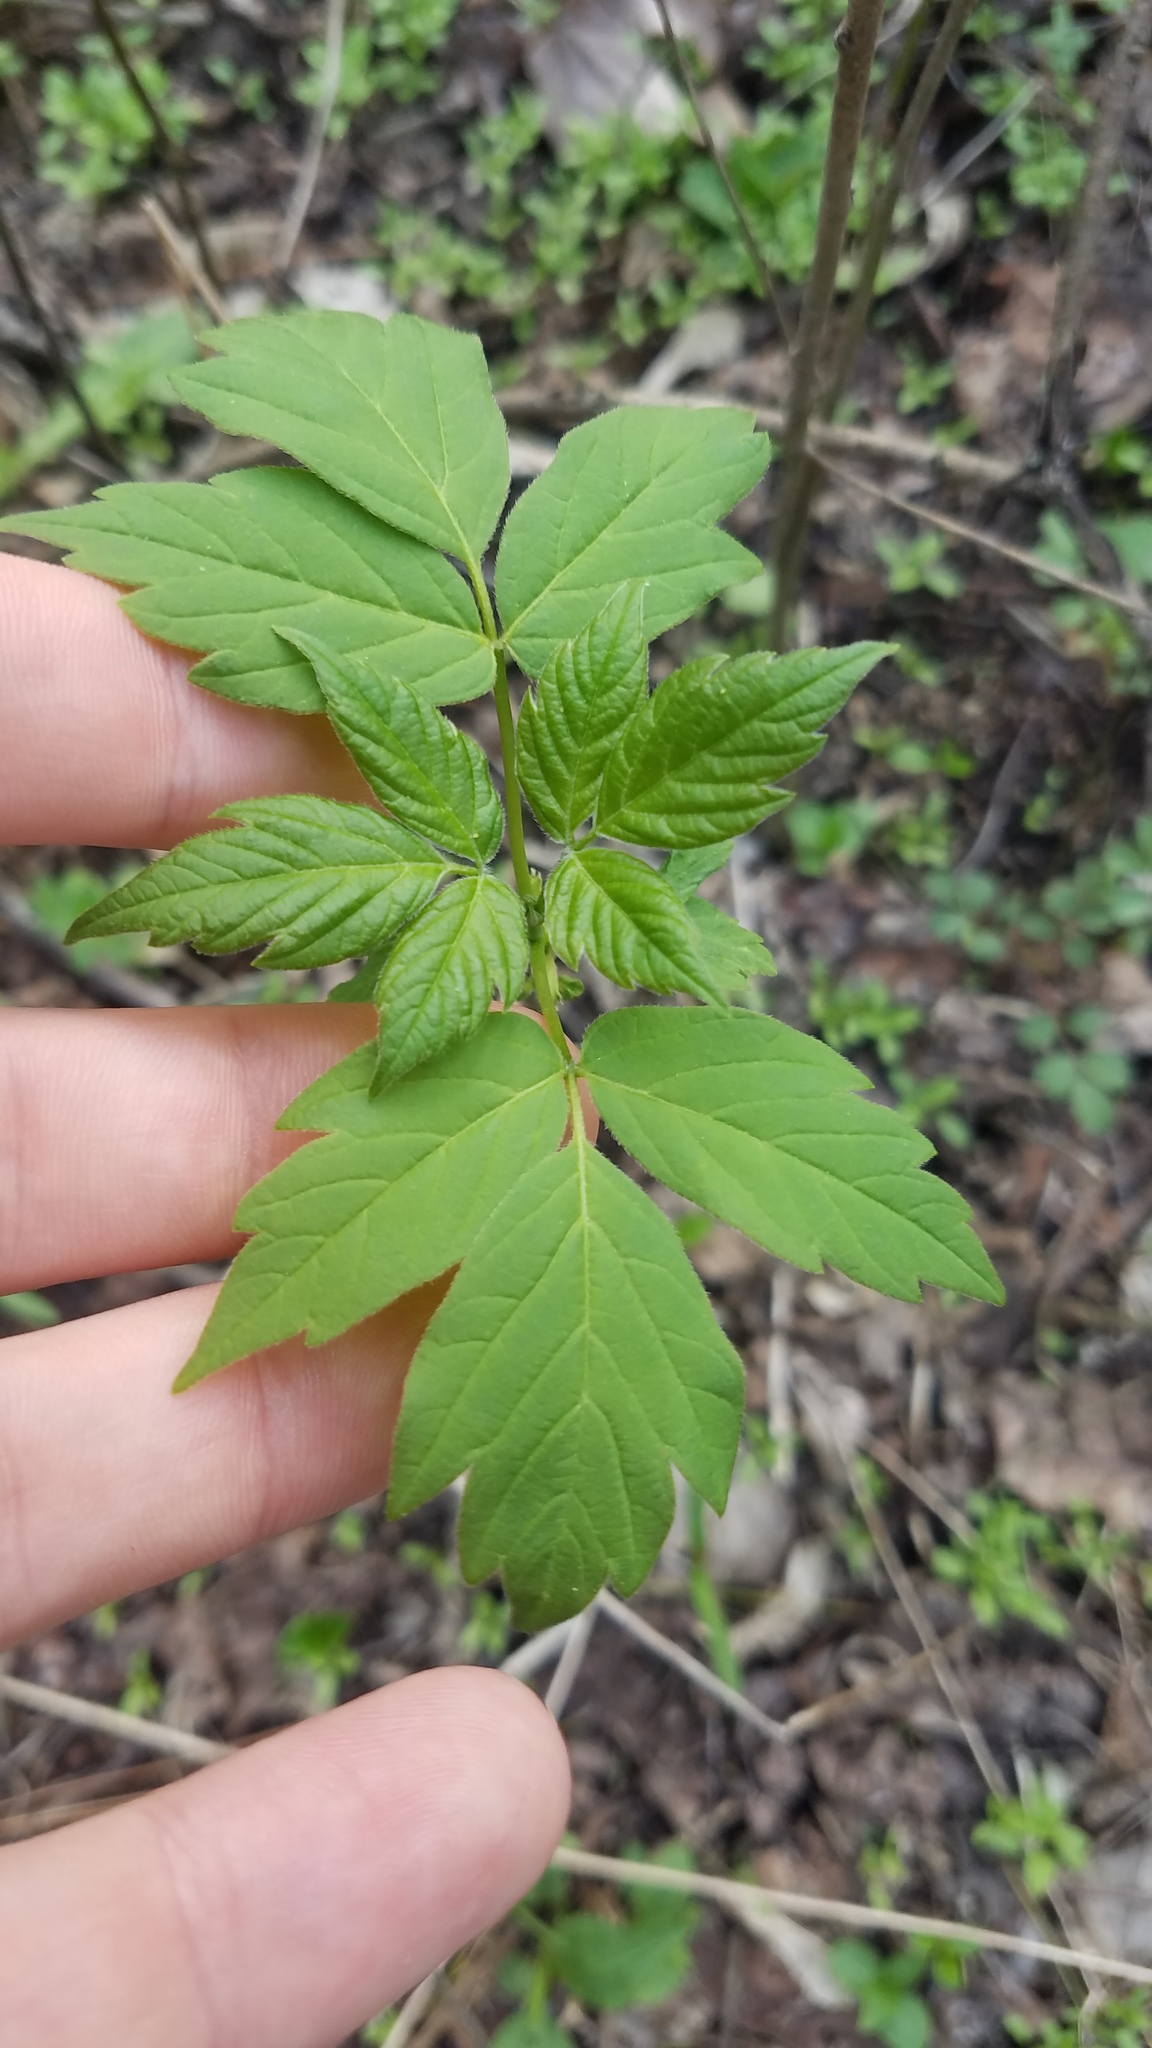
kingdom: Plantae
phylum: Tracheophyta
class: Magnoliopsida
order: Sapindales
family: Sapindaceae
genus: Acer
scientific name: Acer negundo
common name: Ashleaf maple
